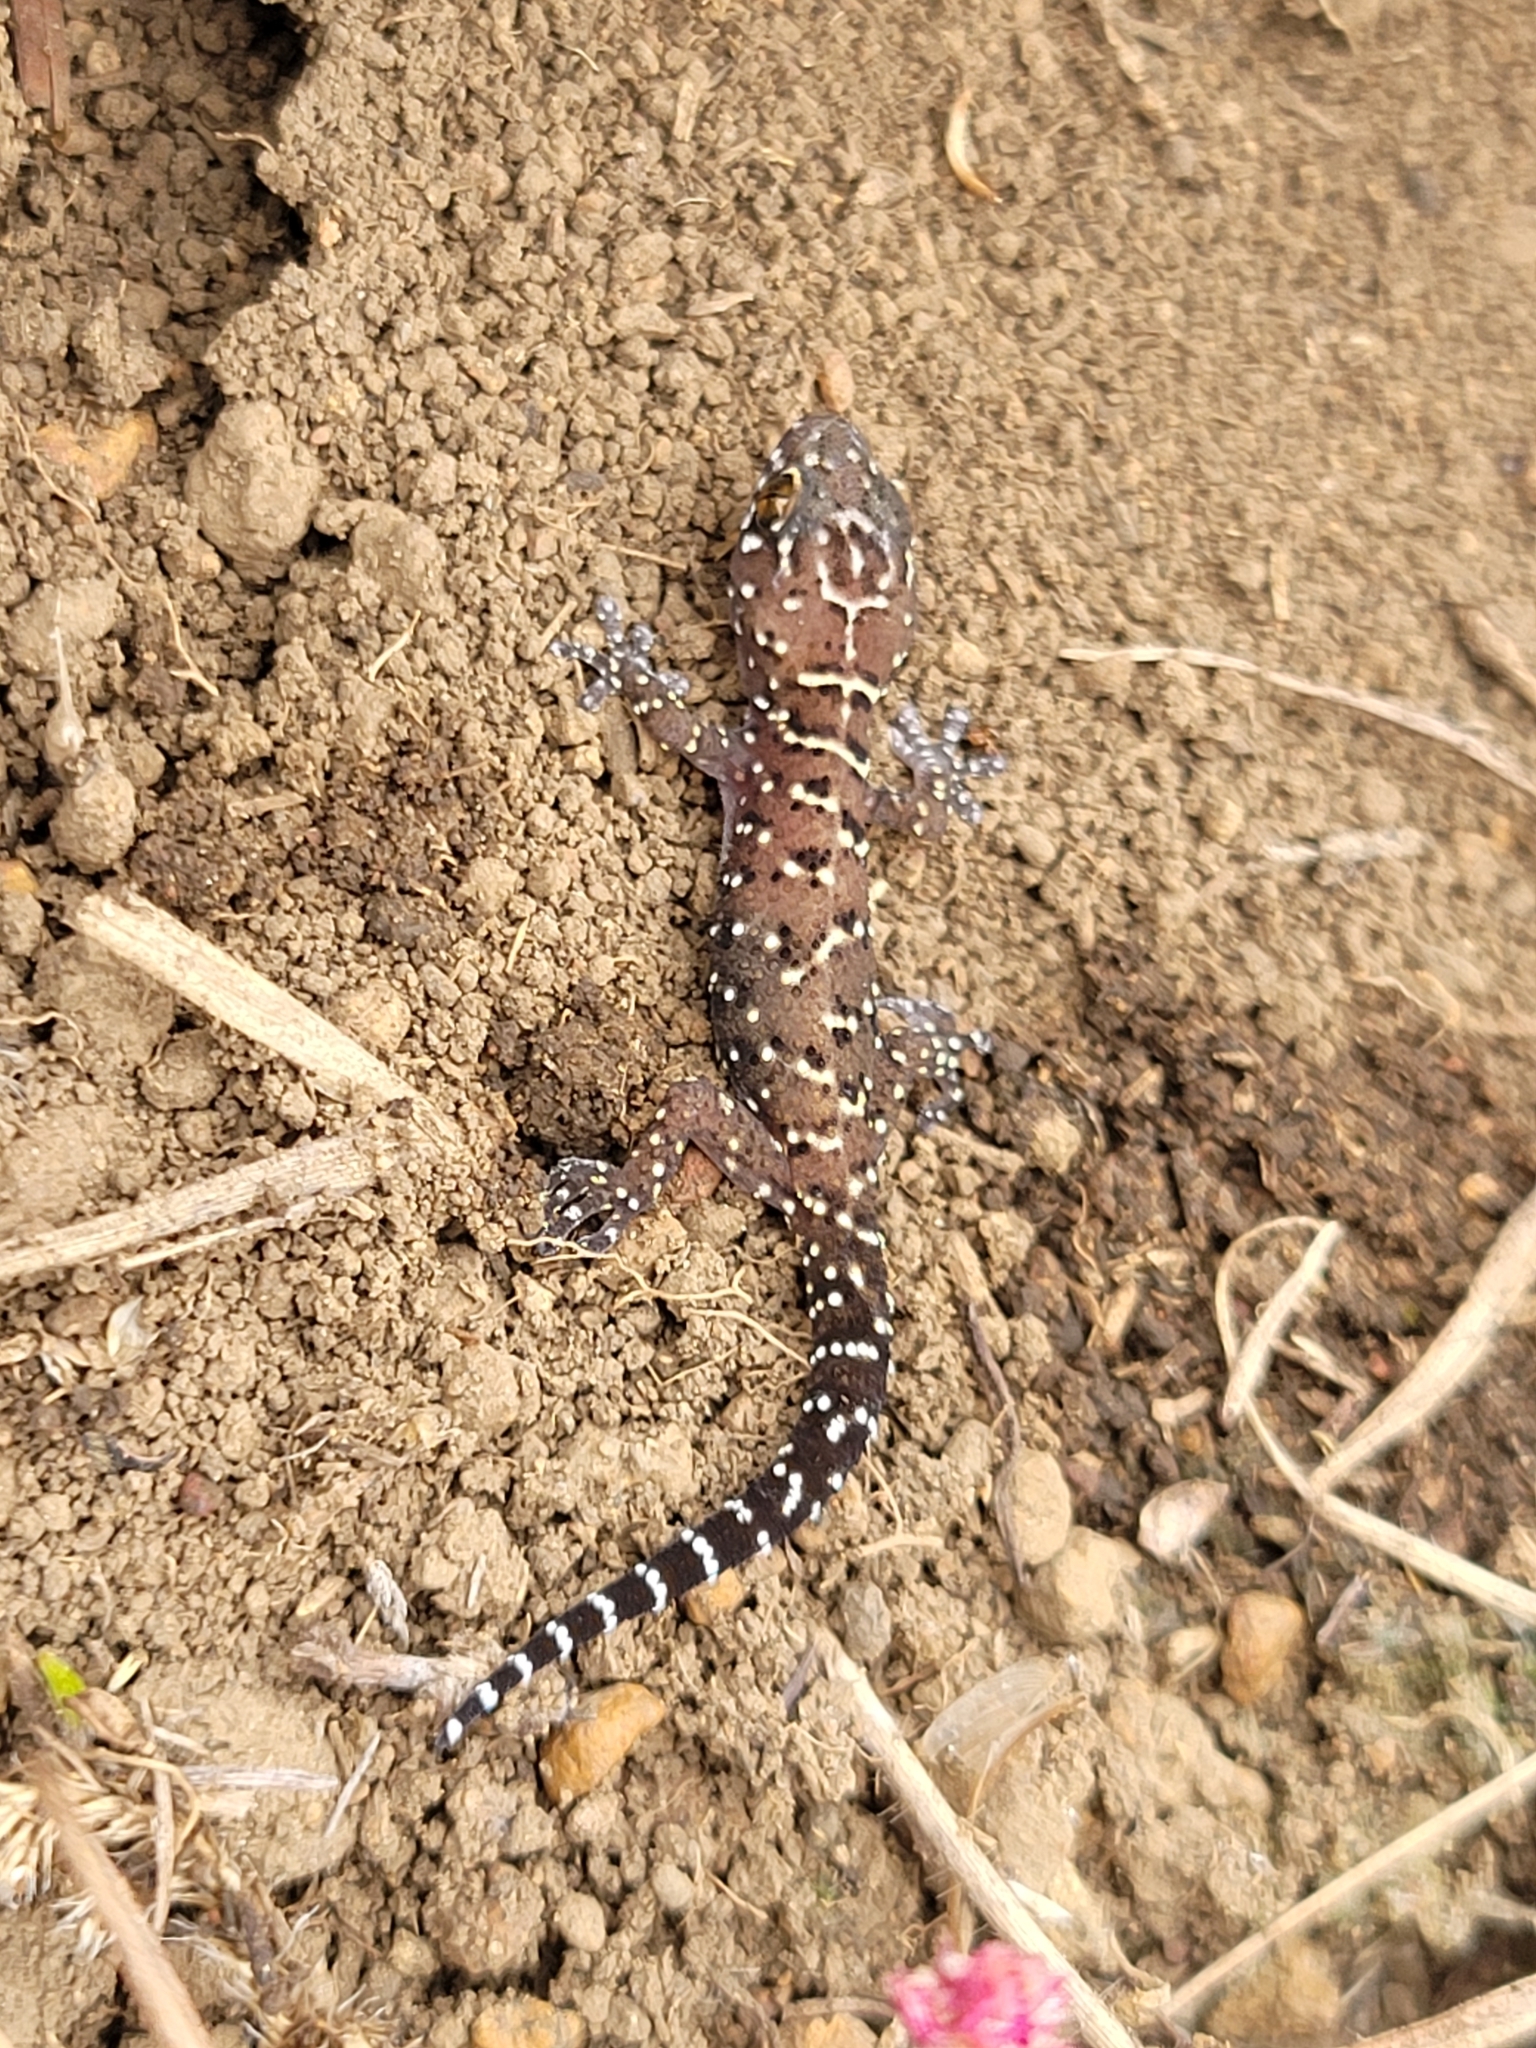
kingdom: Animalia
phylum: Chordata
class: Squamata
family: Gekkonidae
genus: Pachydactylus
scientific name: Pachydactylus vansoni
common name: Van son's gecko
